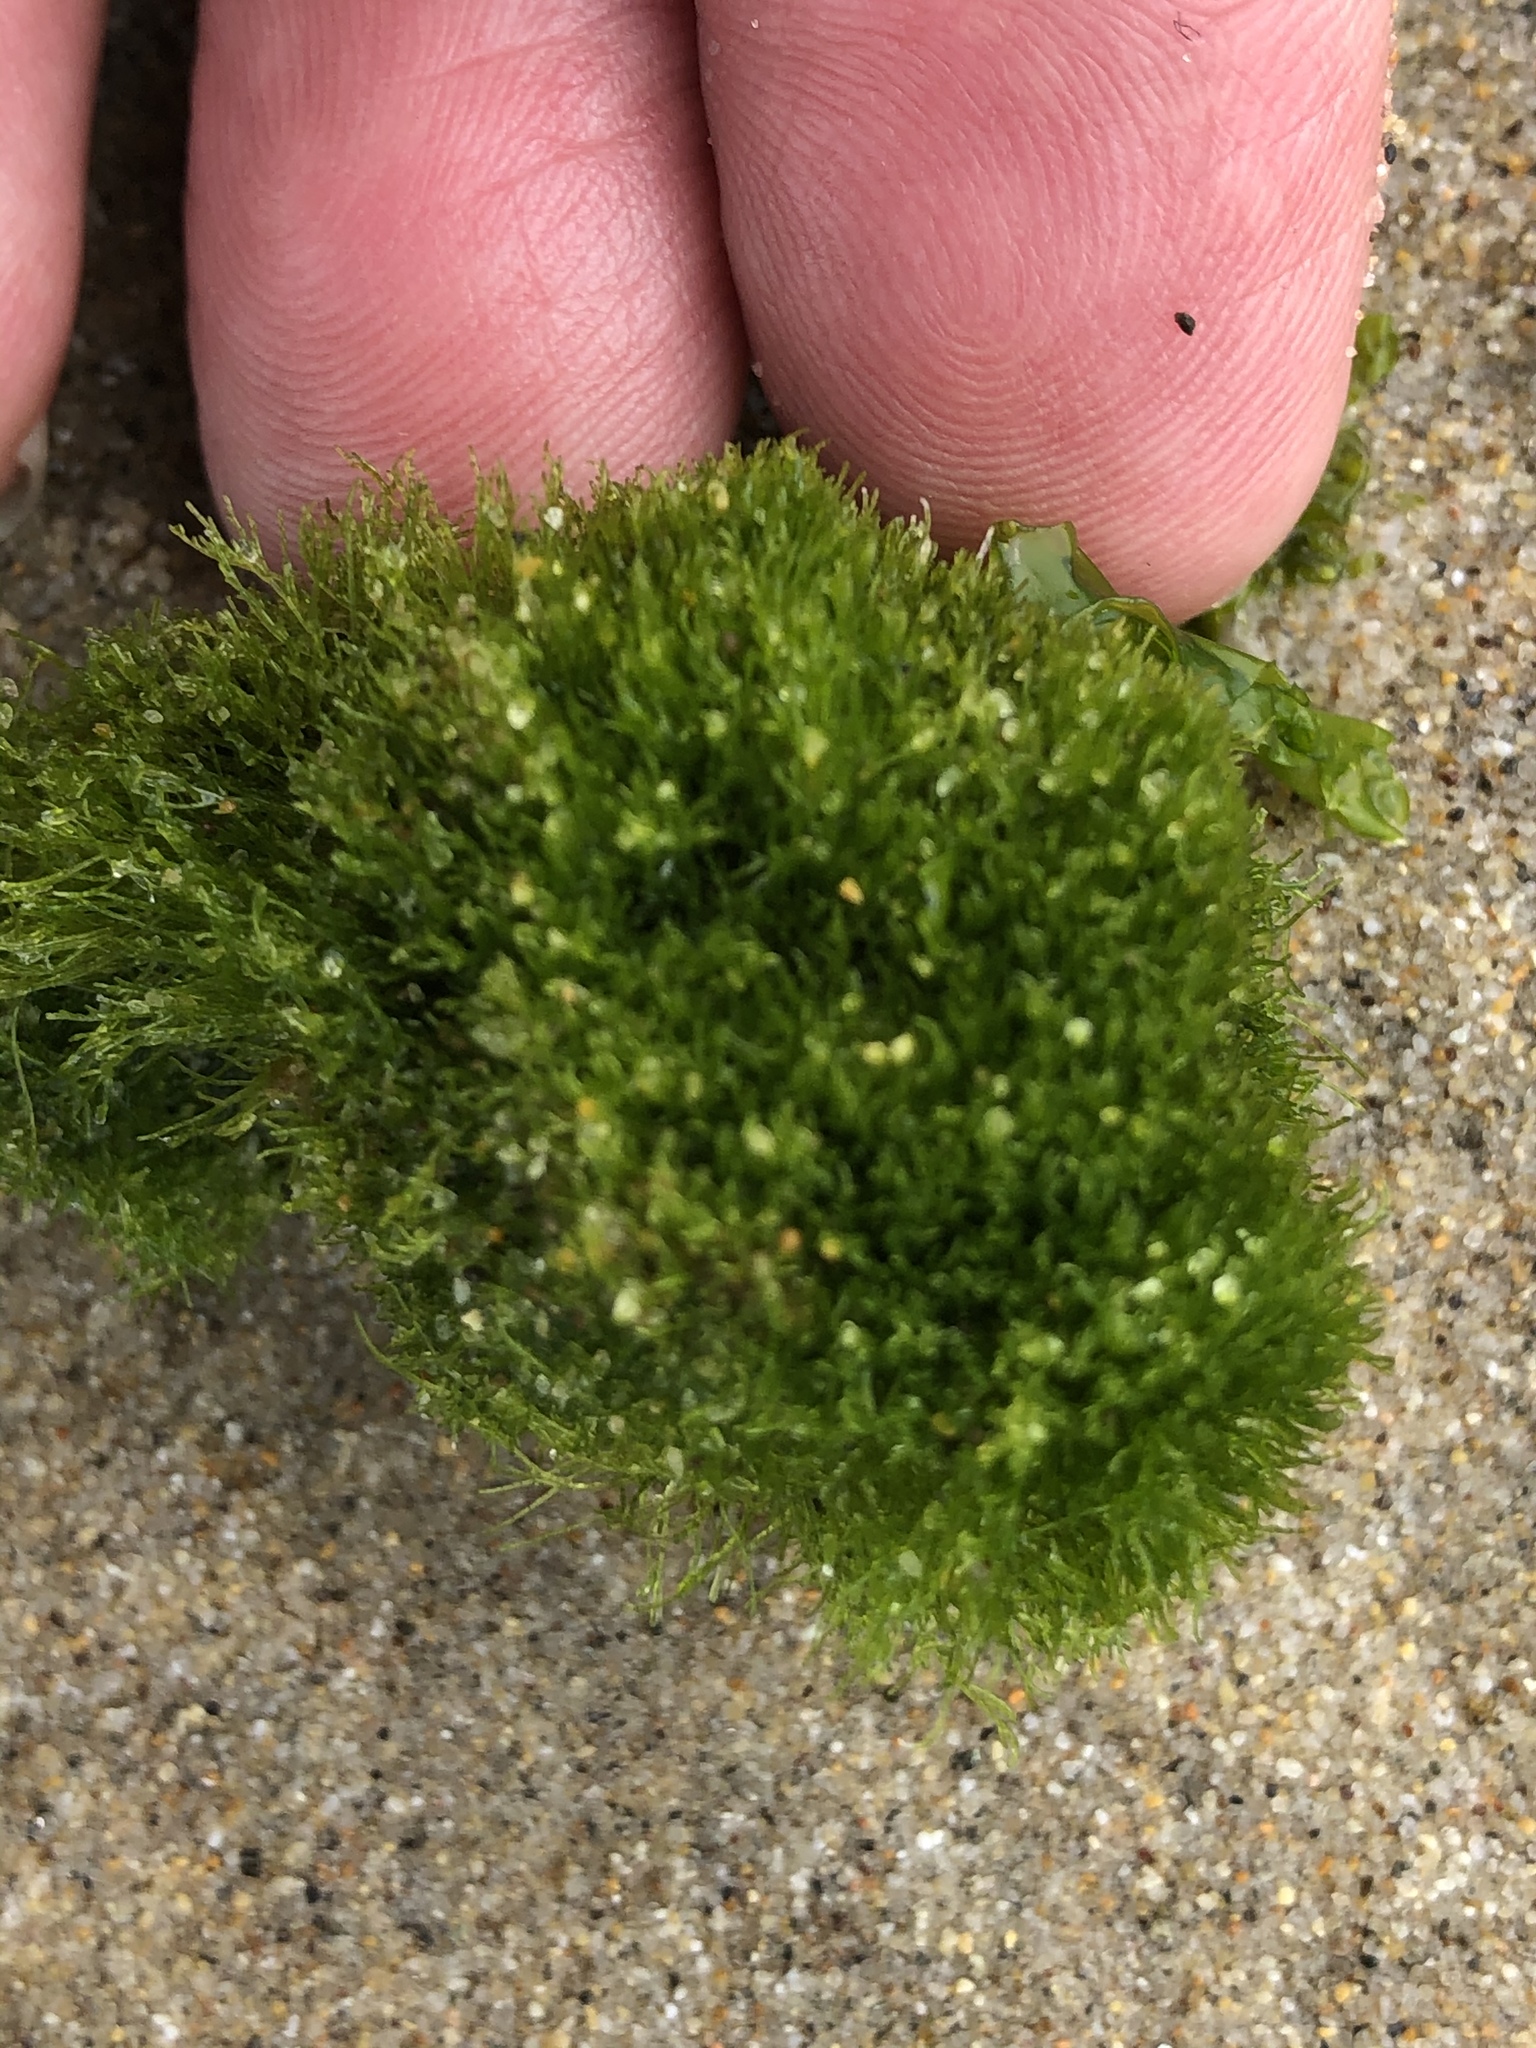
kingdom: Plantae
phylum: Chlorophyta
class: Ulvophyceae
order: Cladophorales
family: Cladophoraceae
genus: Cladophora
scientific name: Cladophora columbiana
